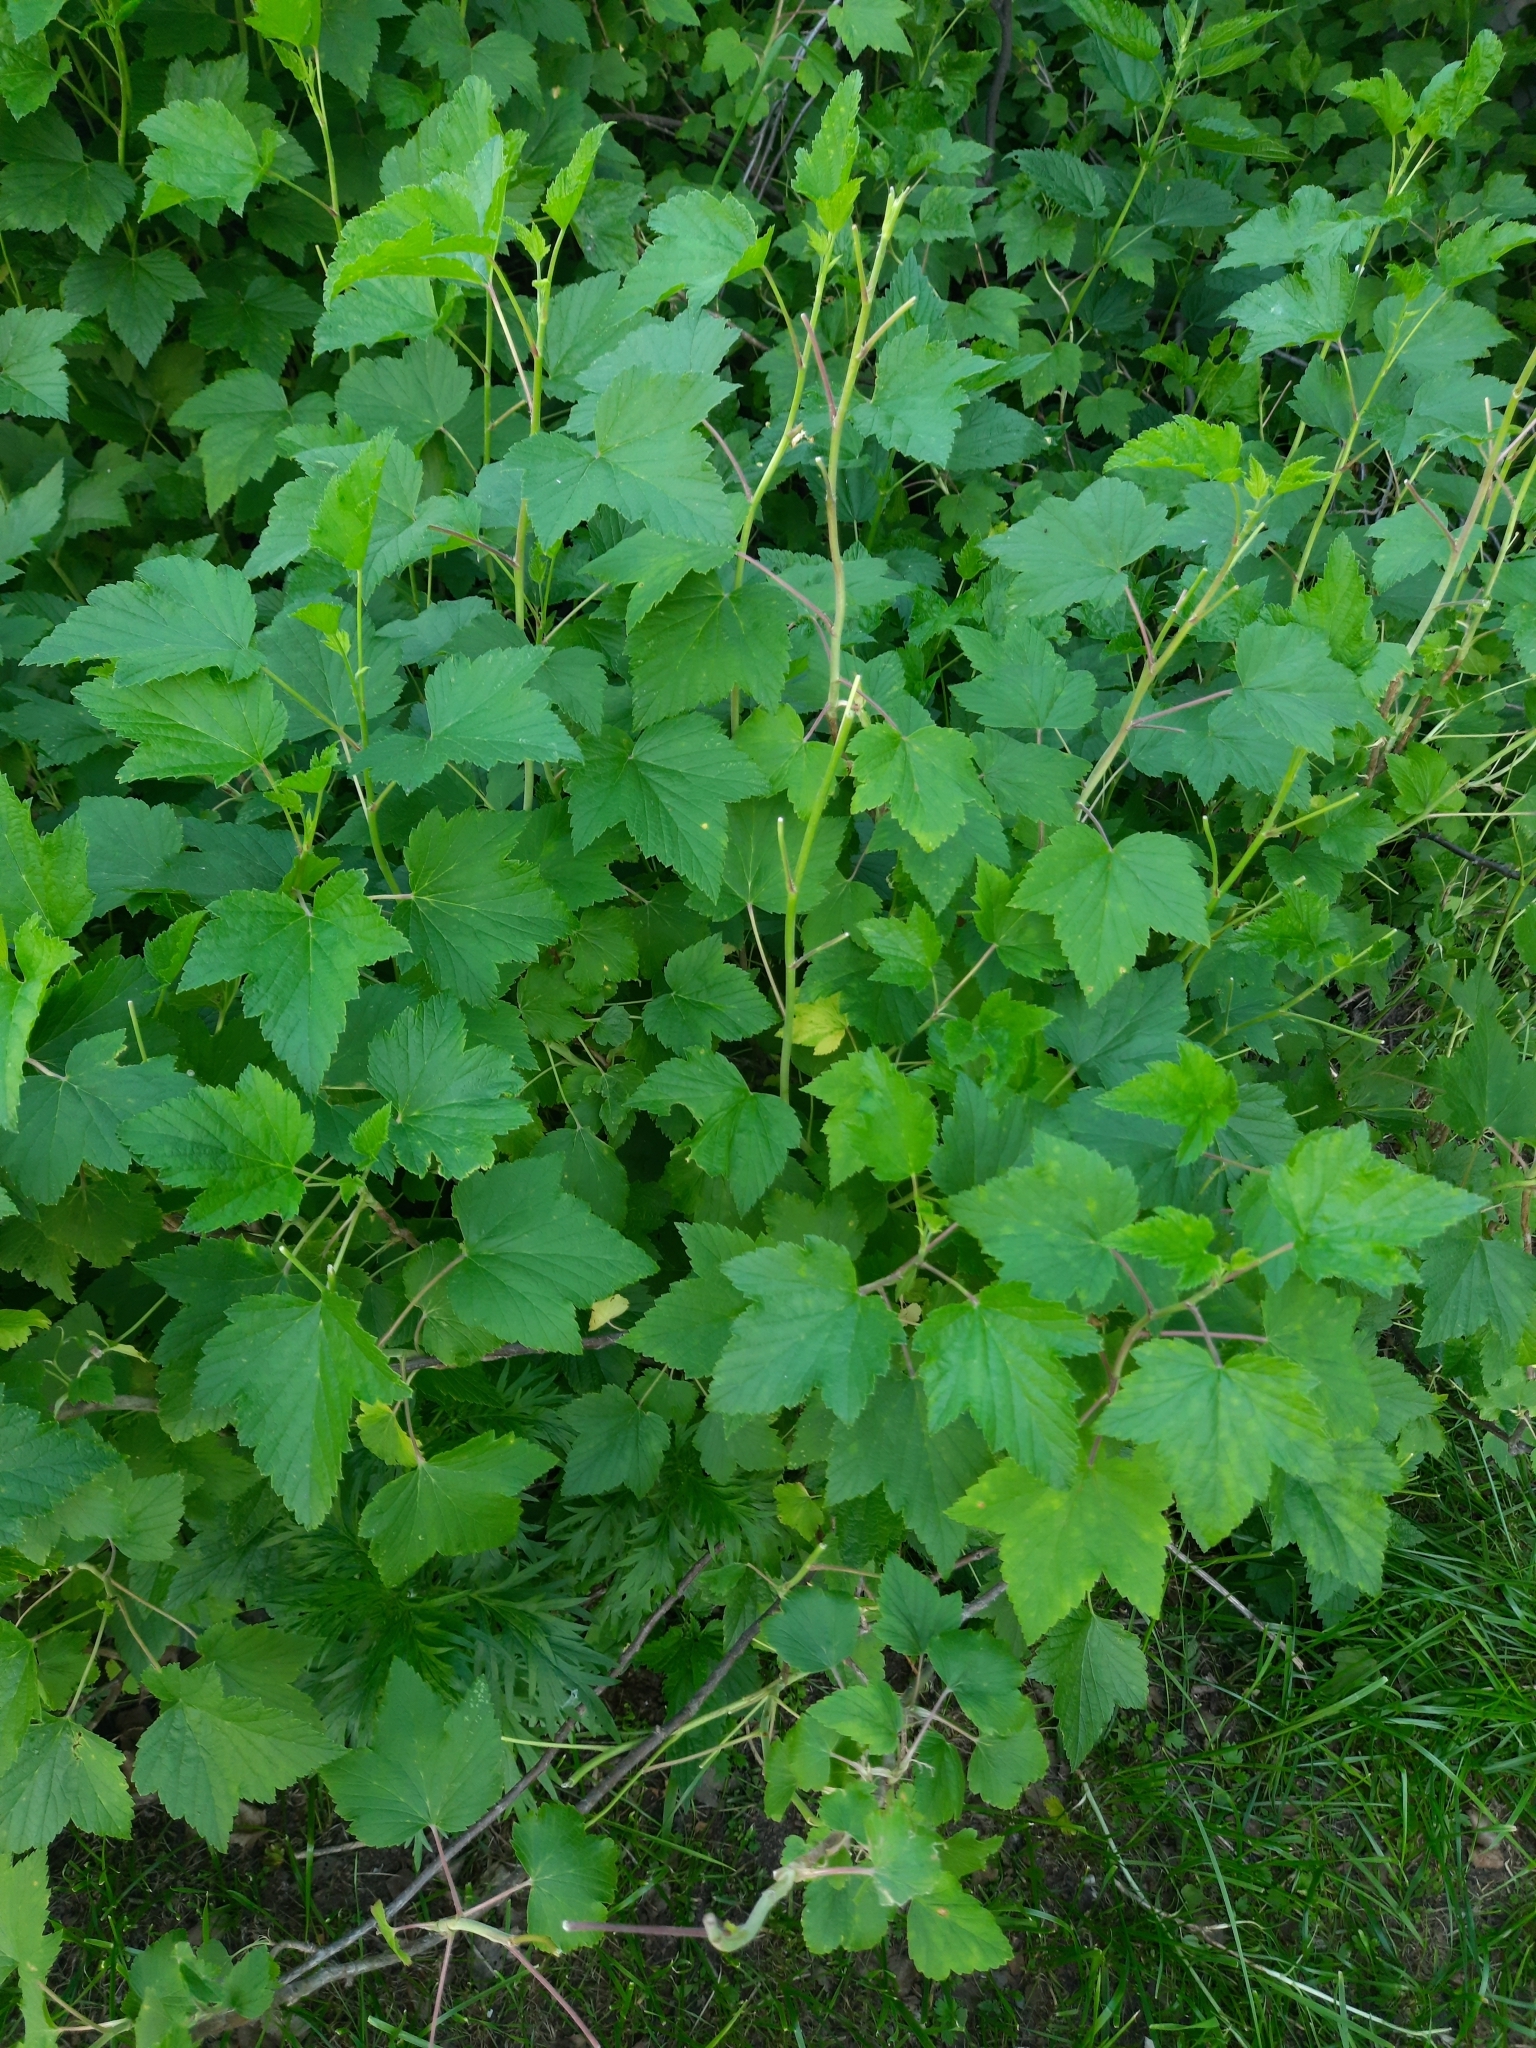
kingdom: Plantae
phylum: Tracheophyta
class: Magnoliopsida
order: Saxifragales
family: Grossulariaceae
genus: Ribes
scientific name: Ribes nigrum
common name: Black currant
